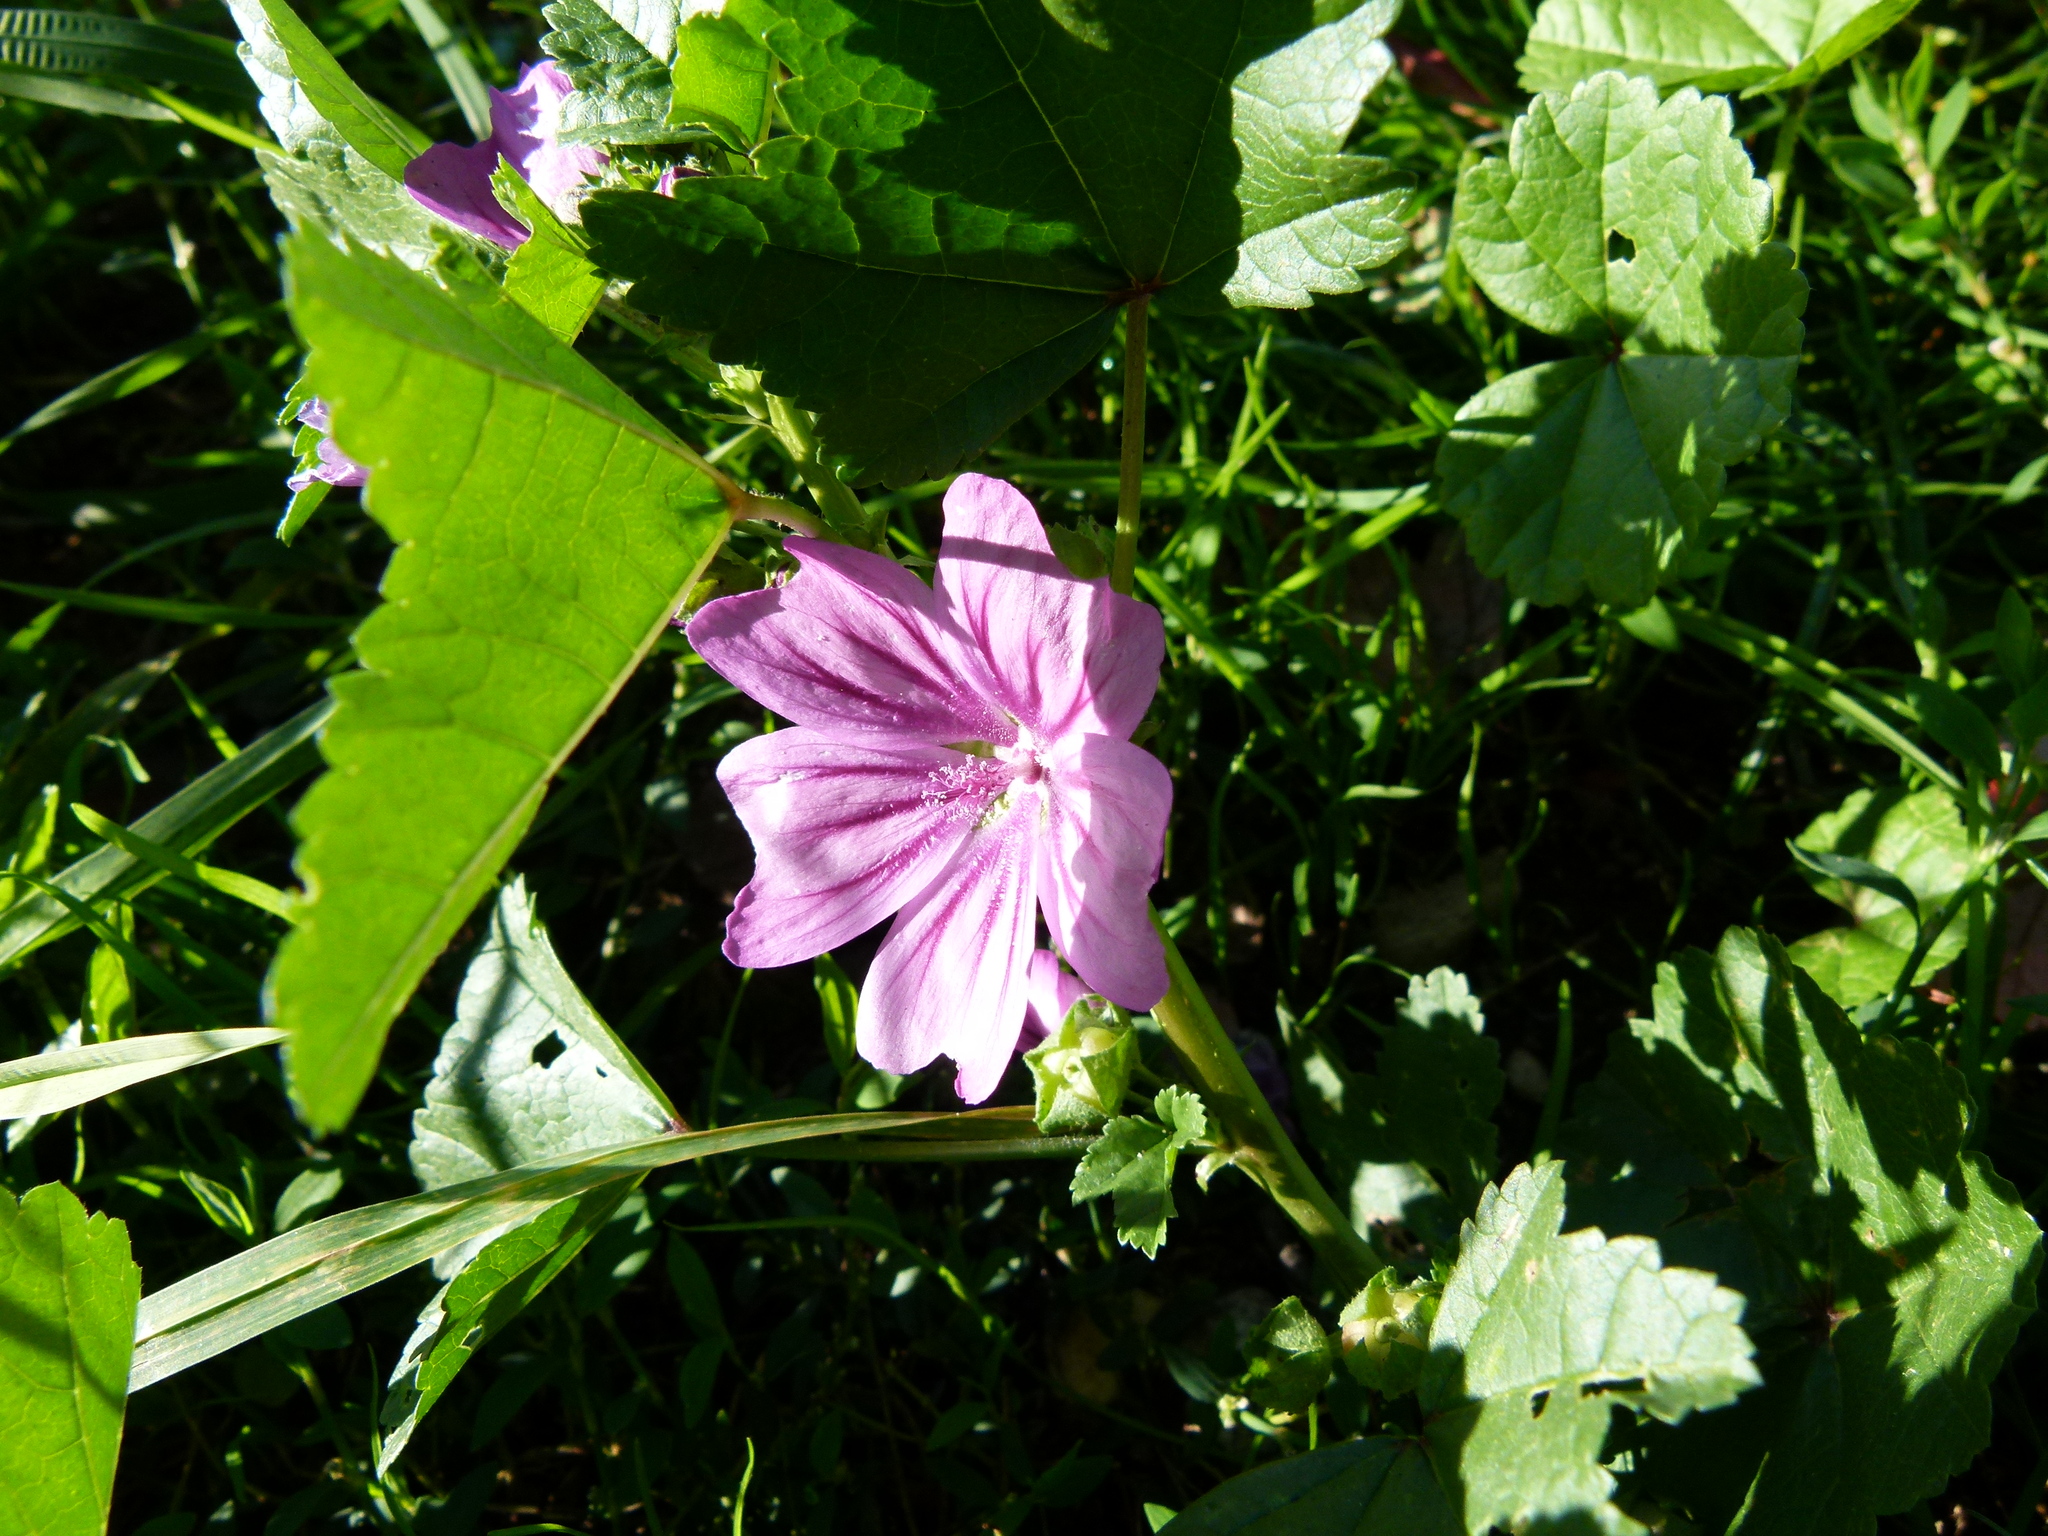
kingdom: Plantae
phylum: Tracheophyta
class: Magnoliopsida
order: Malvales
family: Malvaceae
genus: Malva
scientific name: Malva sylvestris
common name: Common mallow
